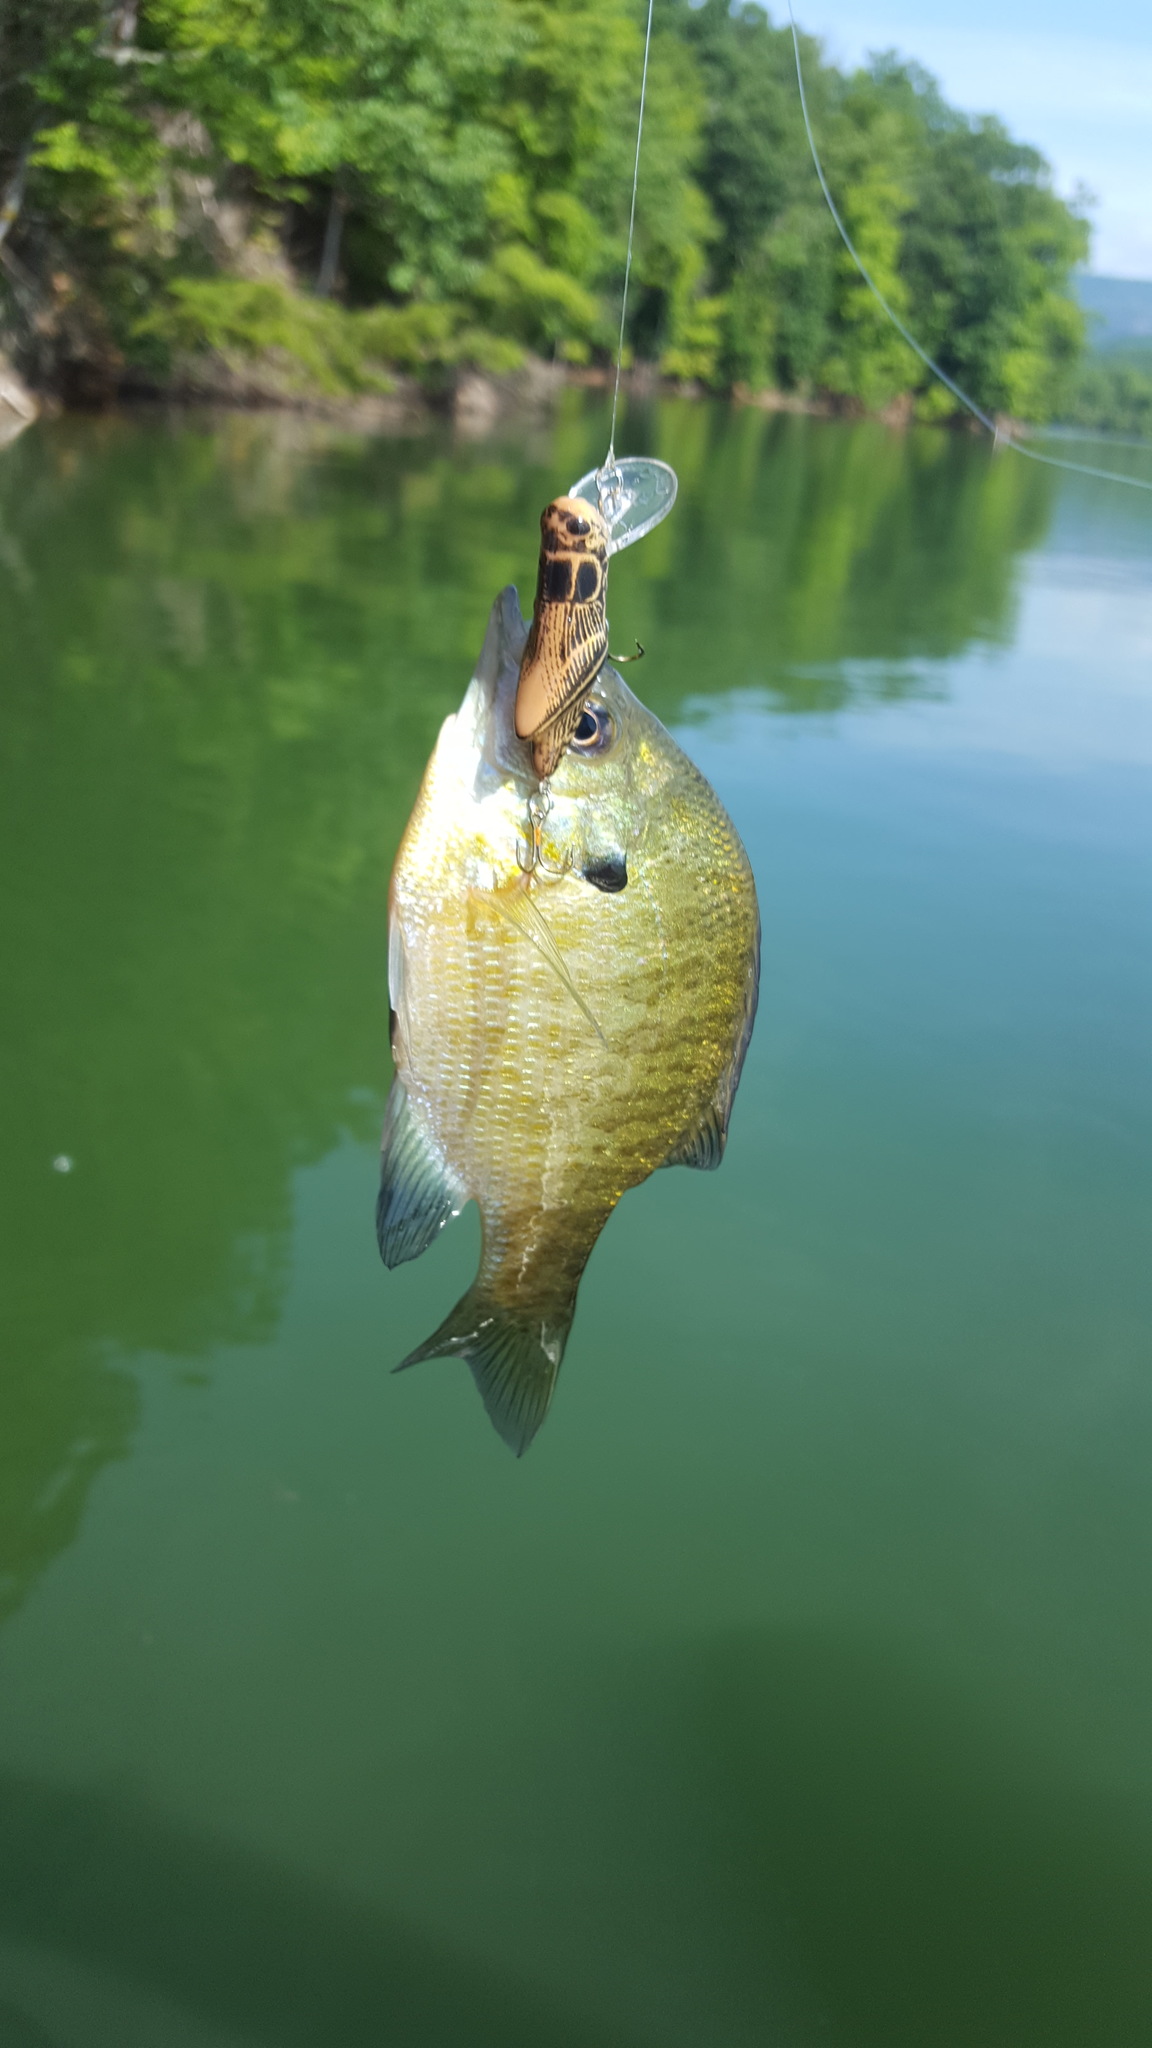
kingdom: Animalia
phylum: Chordata
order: Perciformes
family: Centrarchidae
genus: Lepomis
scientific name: Lepomis macrochirus
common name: Bluegill
